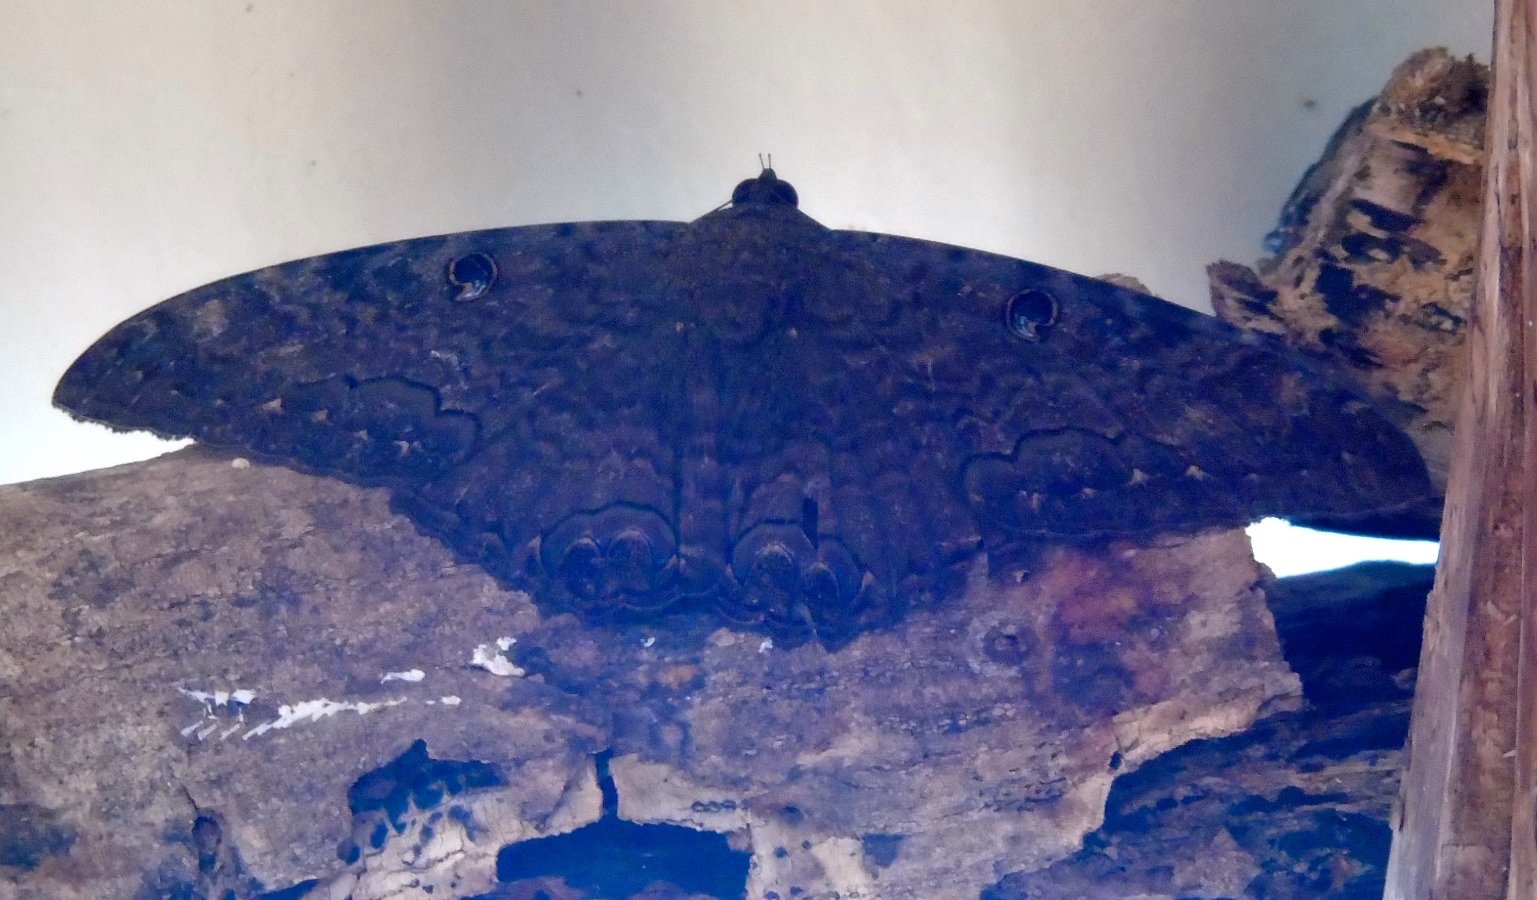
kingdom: Animalia
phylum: Arthropoda
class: Insecta
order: Lepidoptera
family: Erebidae
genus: Ascalapha
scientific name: Ascalapha odorata
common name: Black witch
